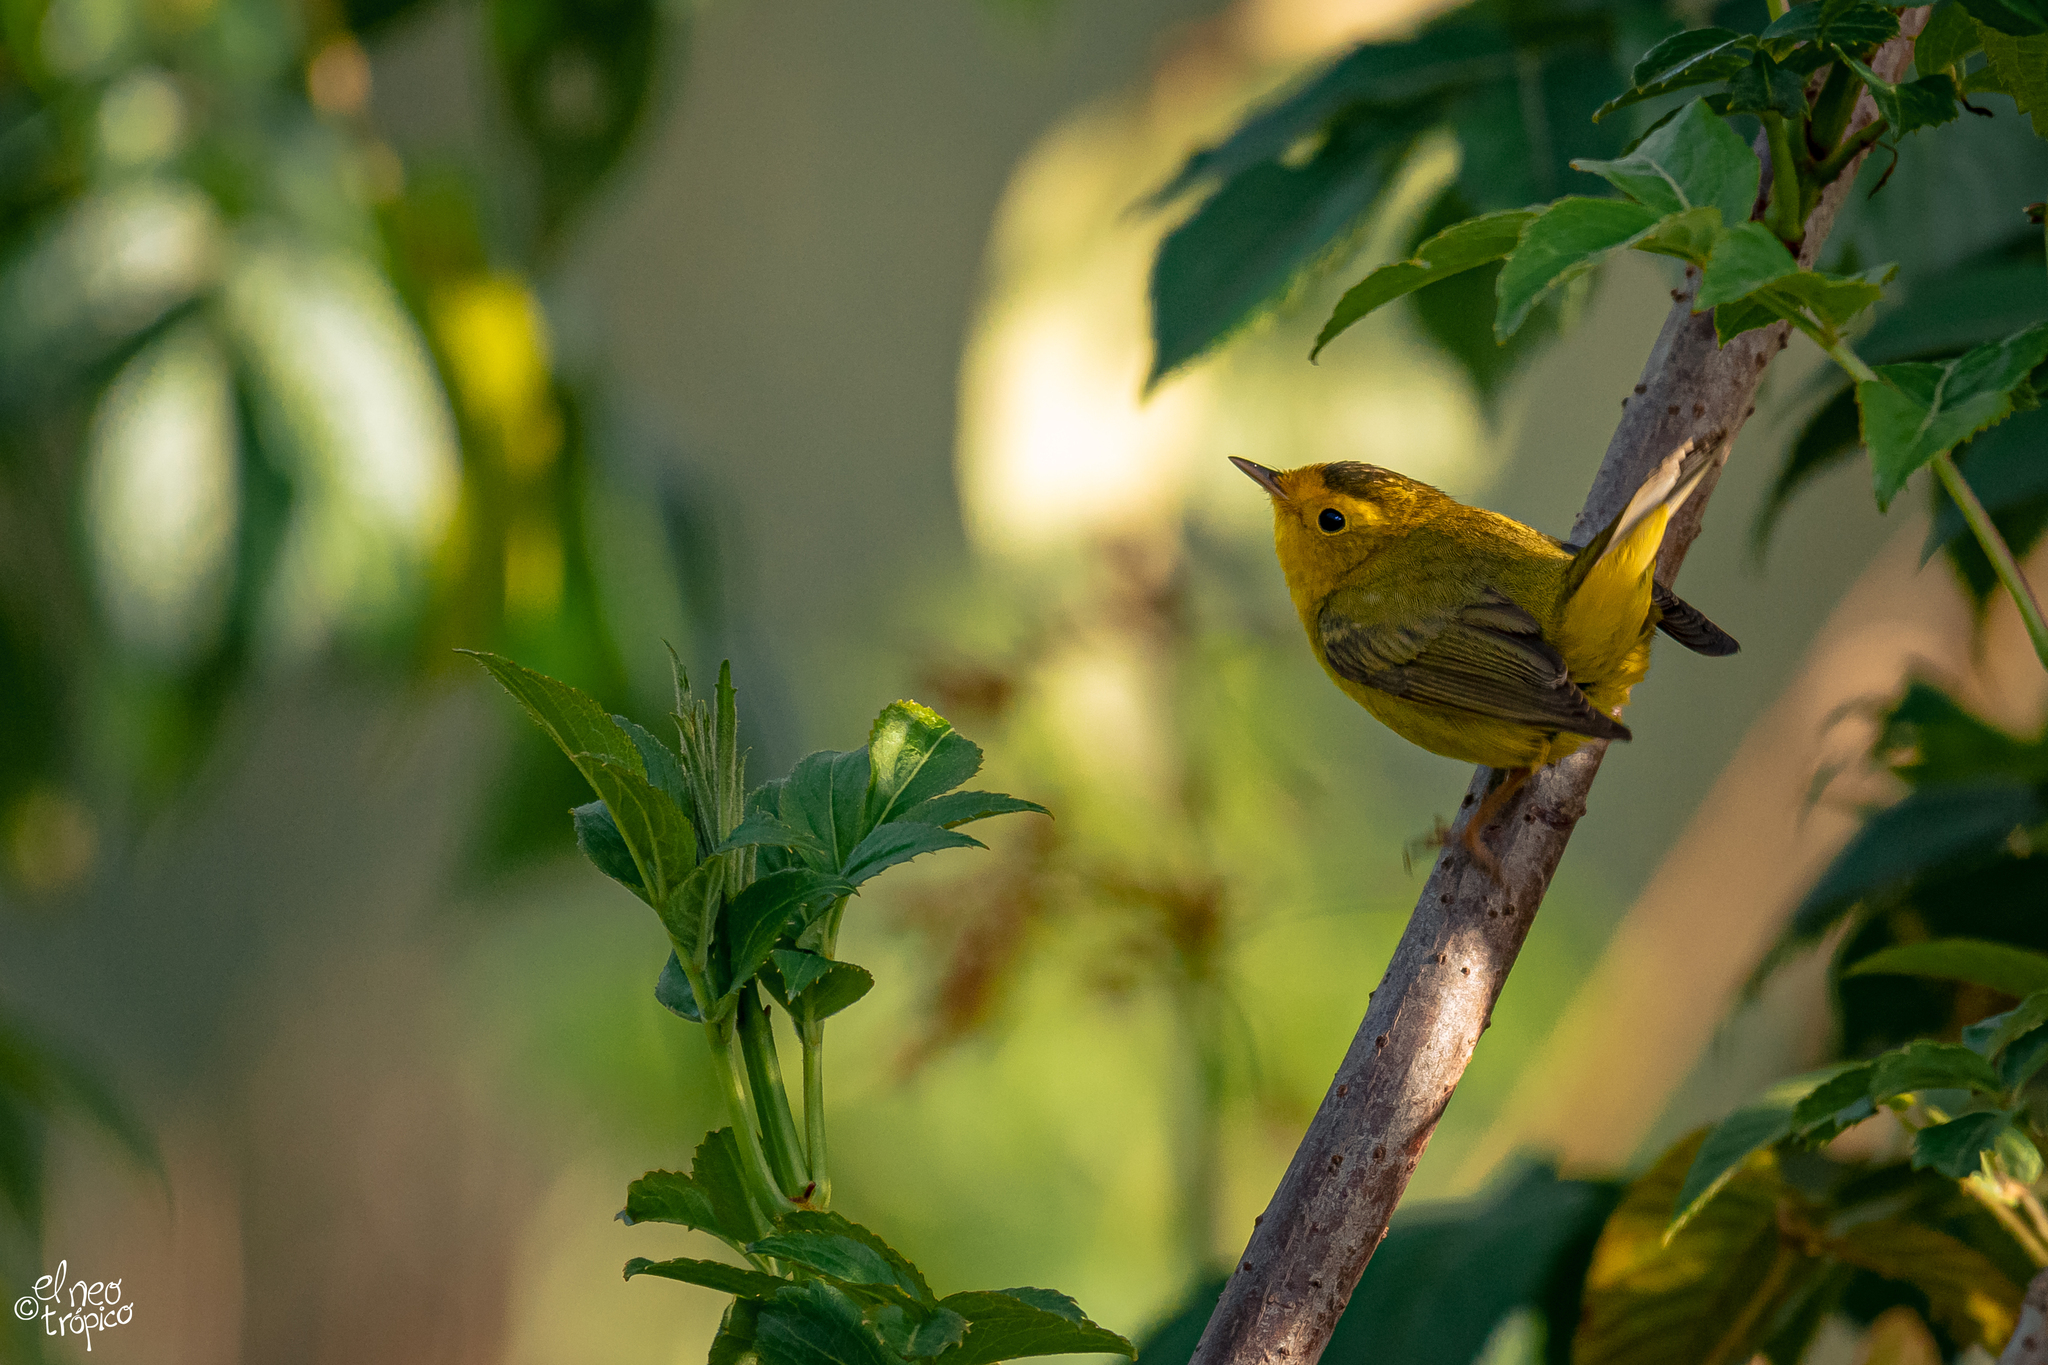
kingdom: Animalia
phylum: Chordata
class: Aves
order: Passeriformes
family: Parulidae
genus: Cardellina
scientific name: Cardellina pusilla
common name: Wilson's warbler
